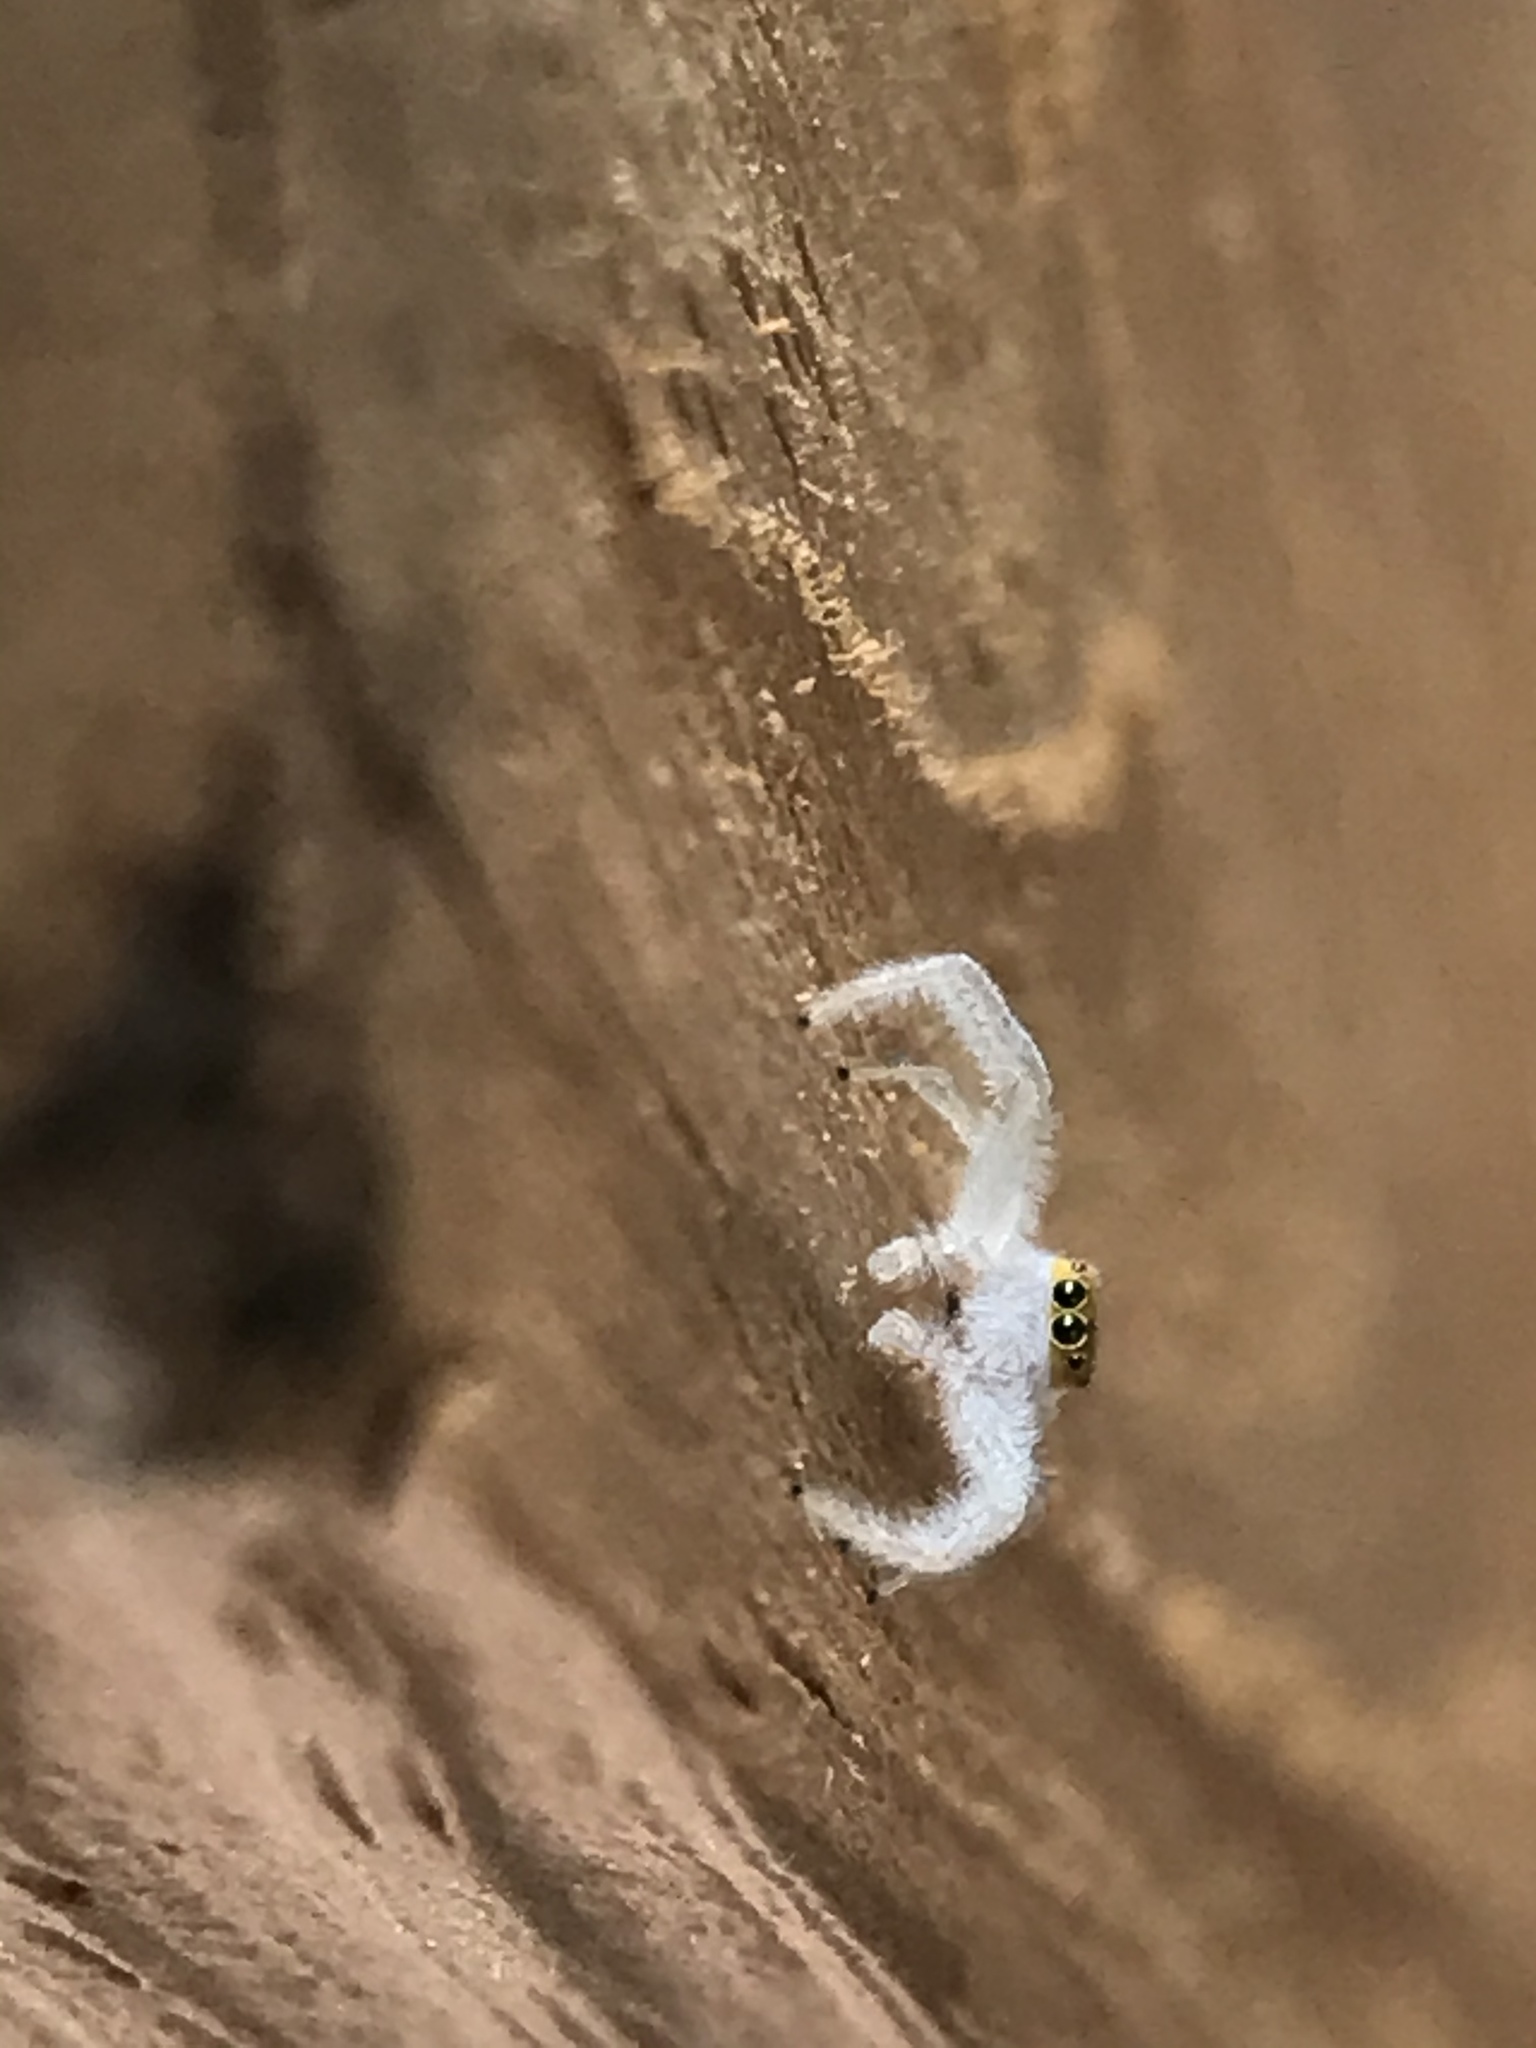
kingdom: Animalia
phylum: Arthropoda
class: Arachnida
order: Araneae
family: Salticidae
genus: Hentzia
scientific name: Hentzia mitrata
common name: White-jawed jumping spider
